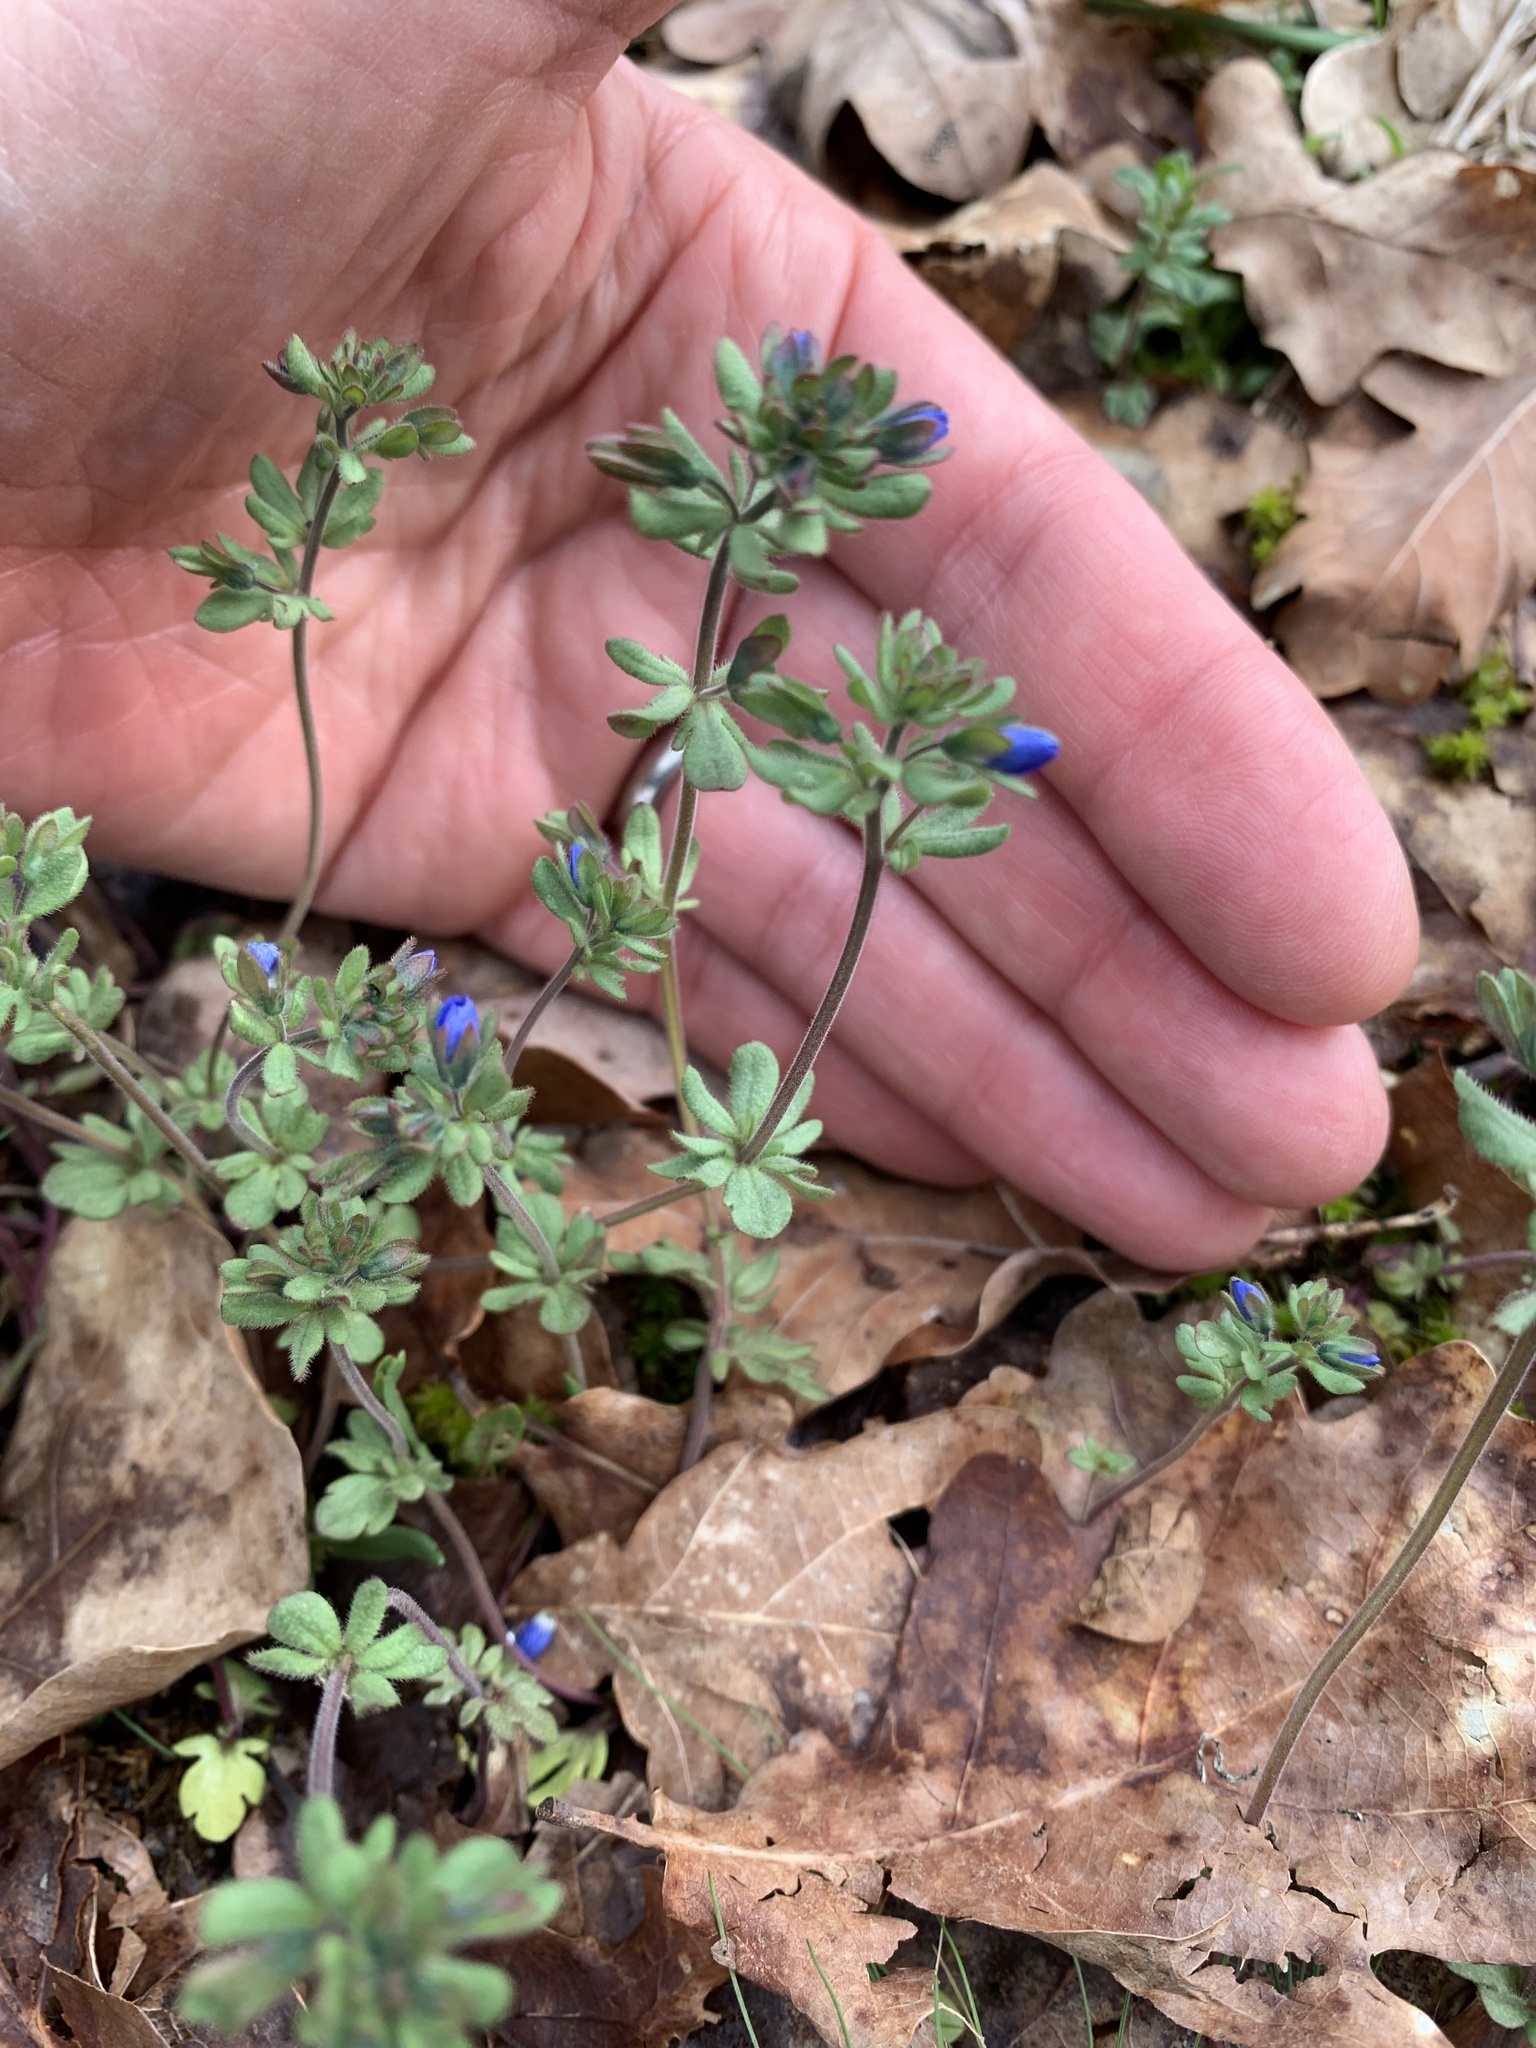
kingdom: Plantae
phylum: Tracheophyta
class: Magnoliopsida
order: Lamiales
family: Plantaginaceae
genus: Veronica
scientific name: Veronica triphyllos
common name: Fingered speedwell
